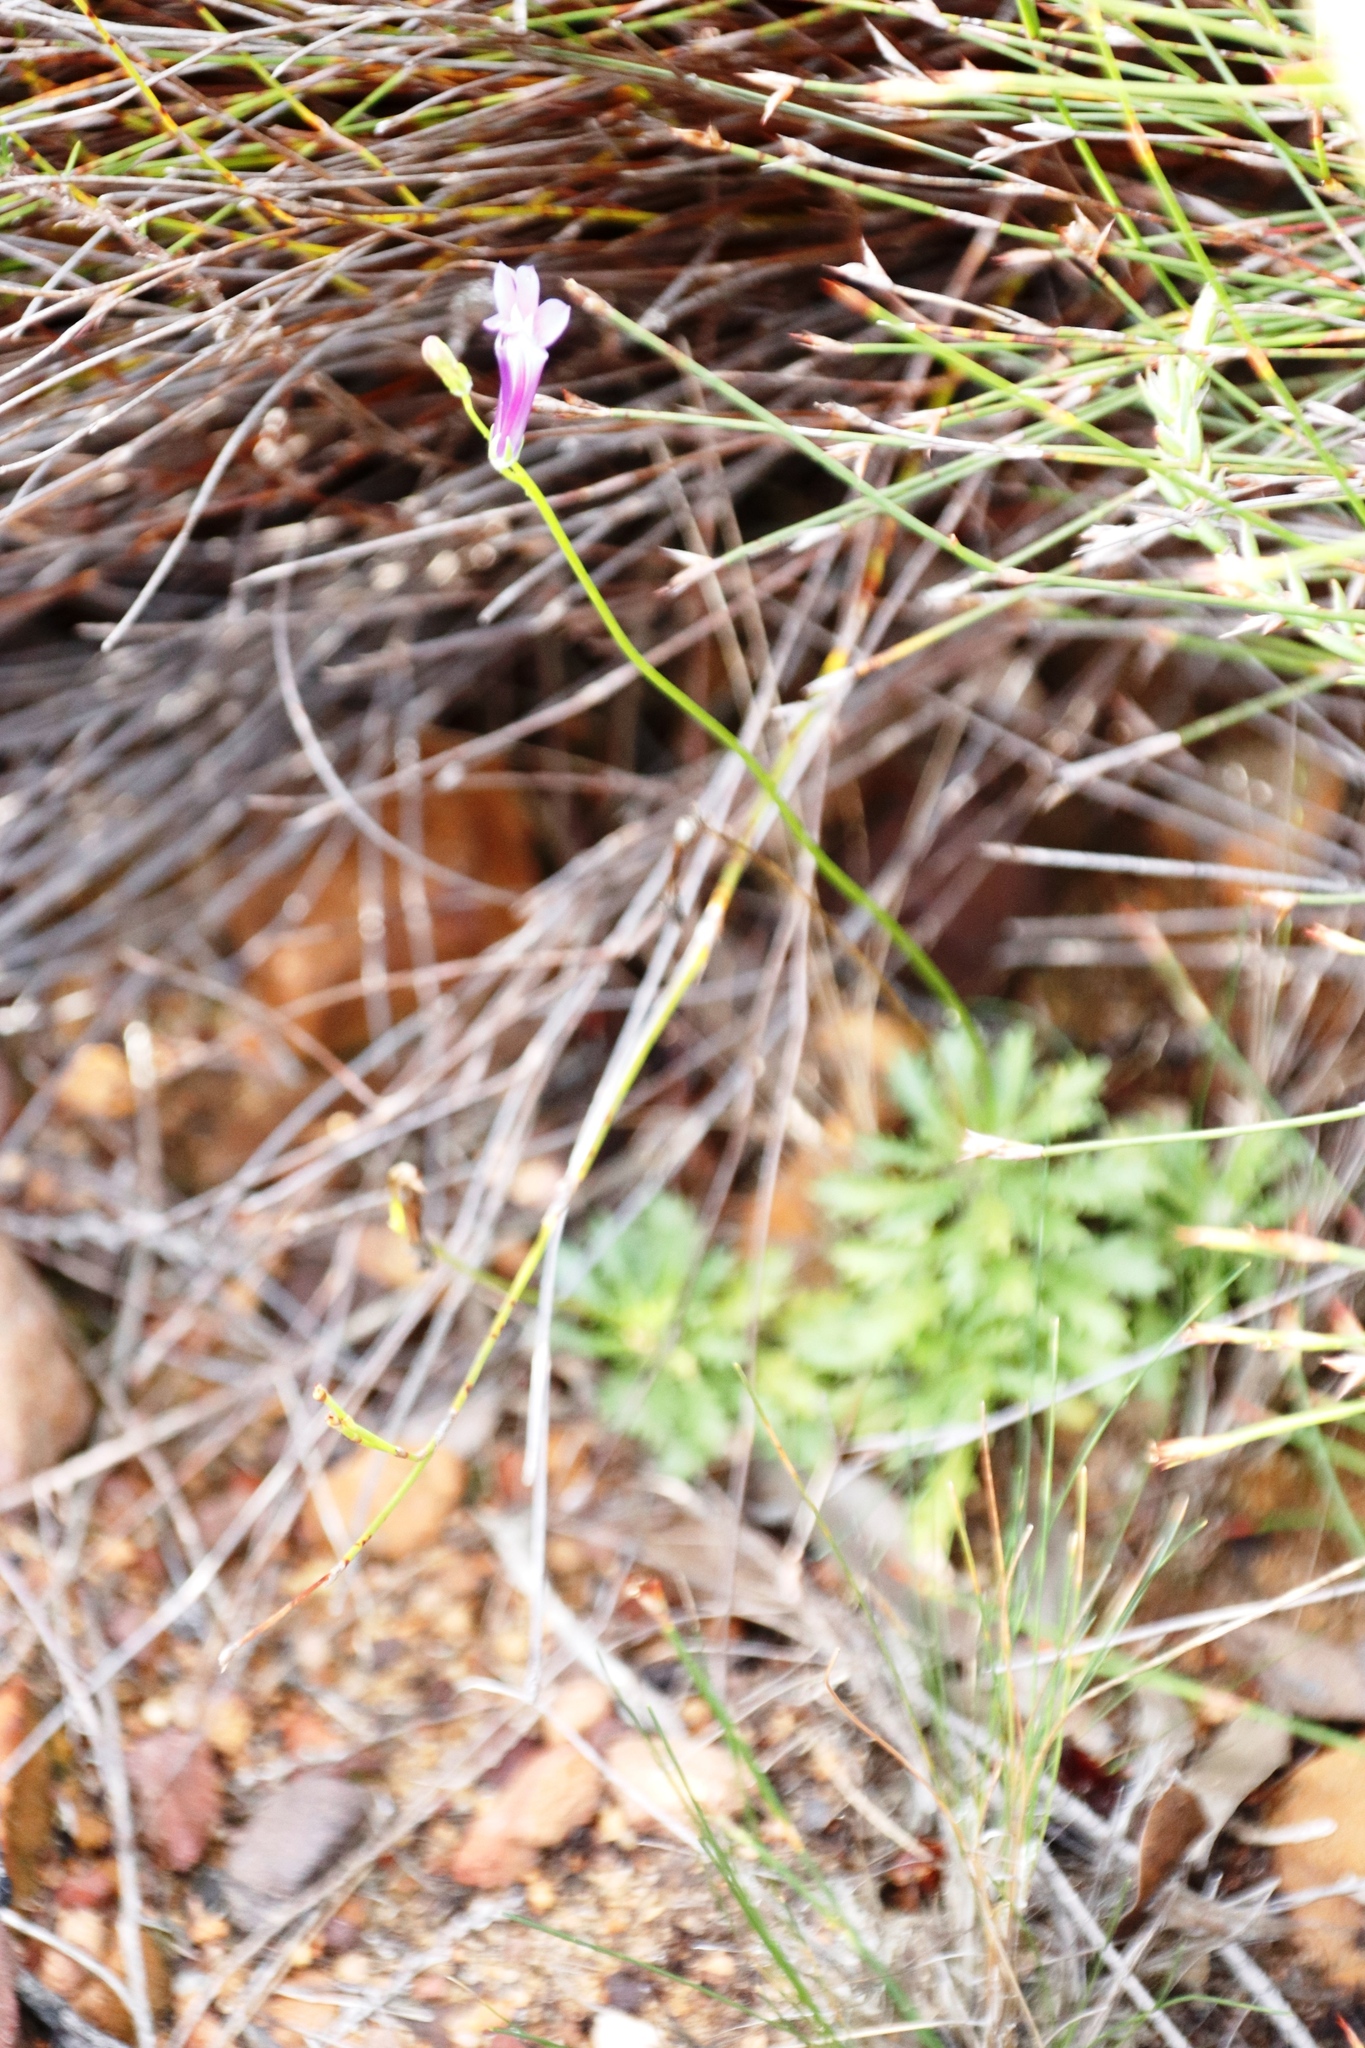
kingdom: Plantae
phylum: Tracheophyta
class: Magnoliopsida
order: Asterales
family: Campanulaceae
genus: Lobelia
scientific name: Lobelia coronopifolia
